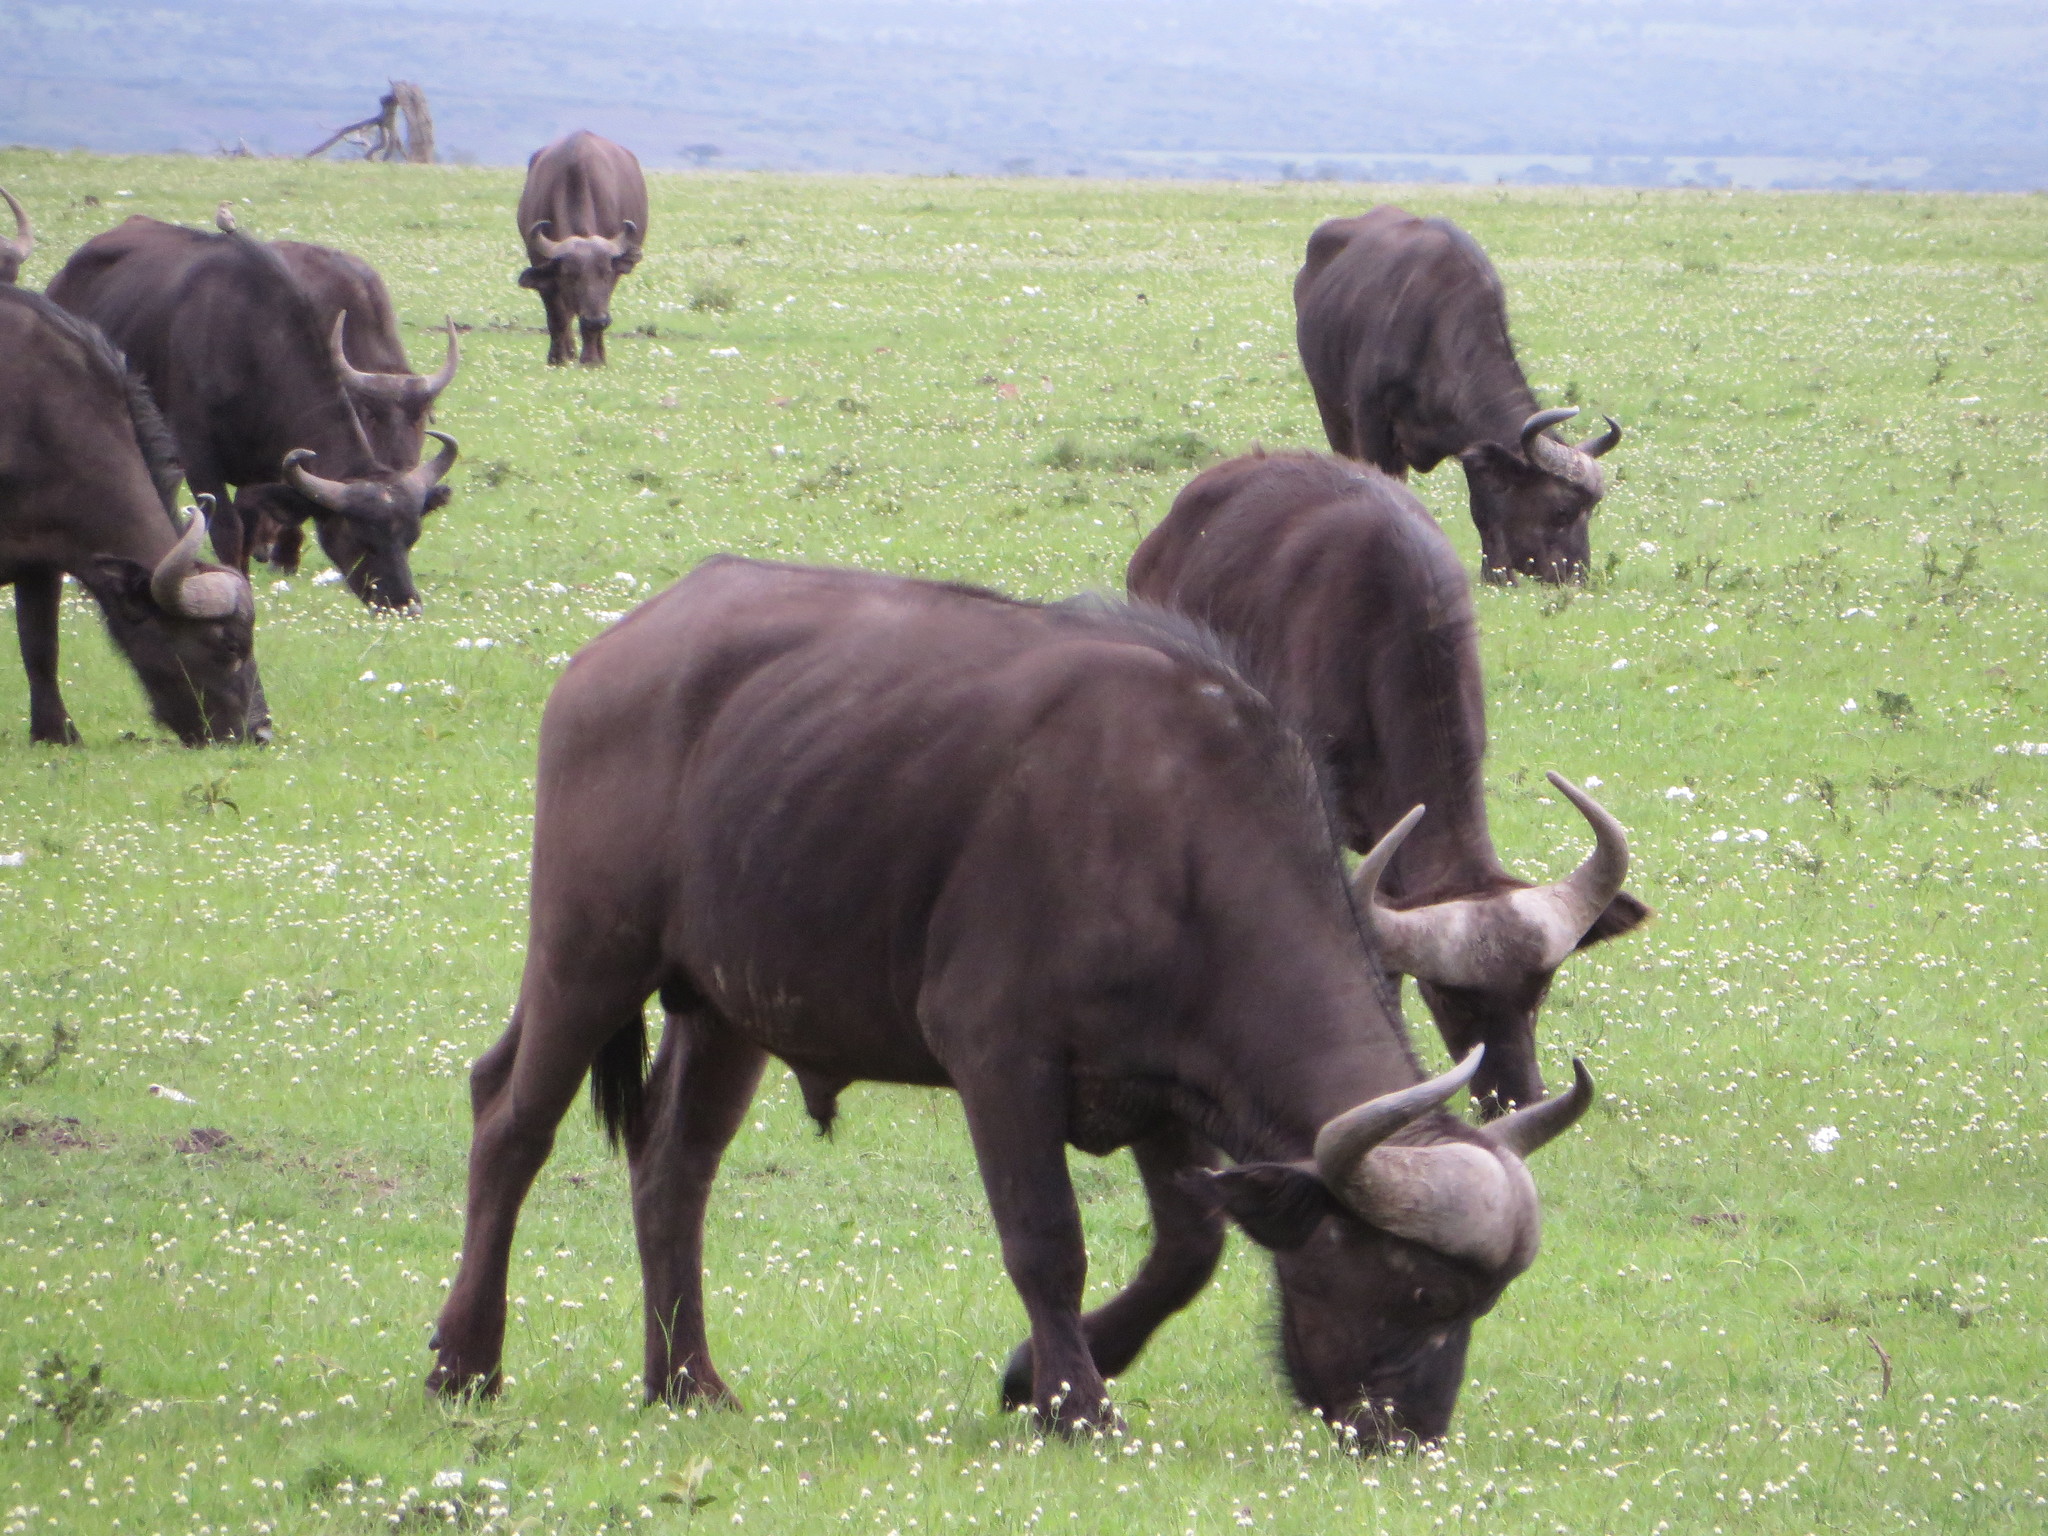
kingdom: Animalia
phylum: Chordata
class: Mammalia
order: Artiodactyla
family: Bovidae
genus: Syncerus
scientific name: Syncerus caffer
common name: African buffalo
